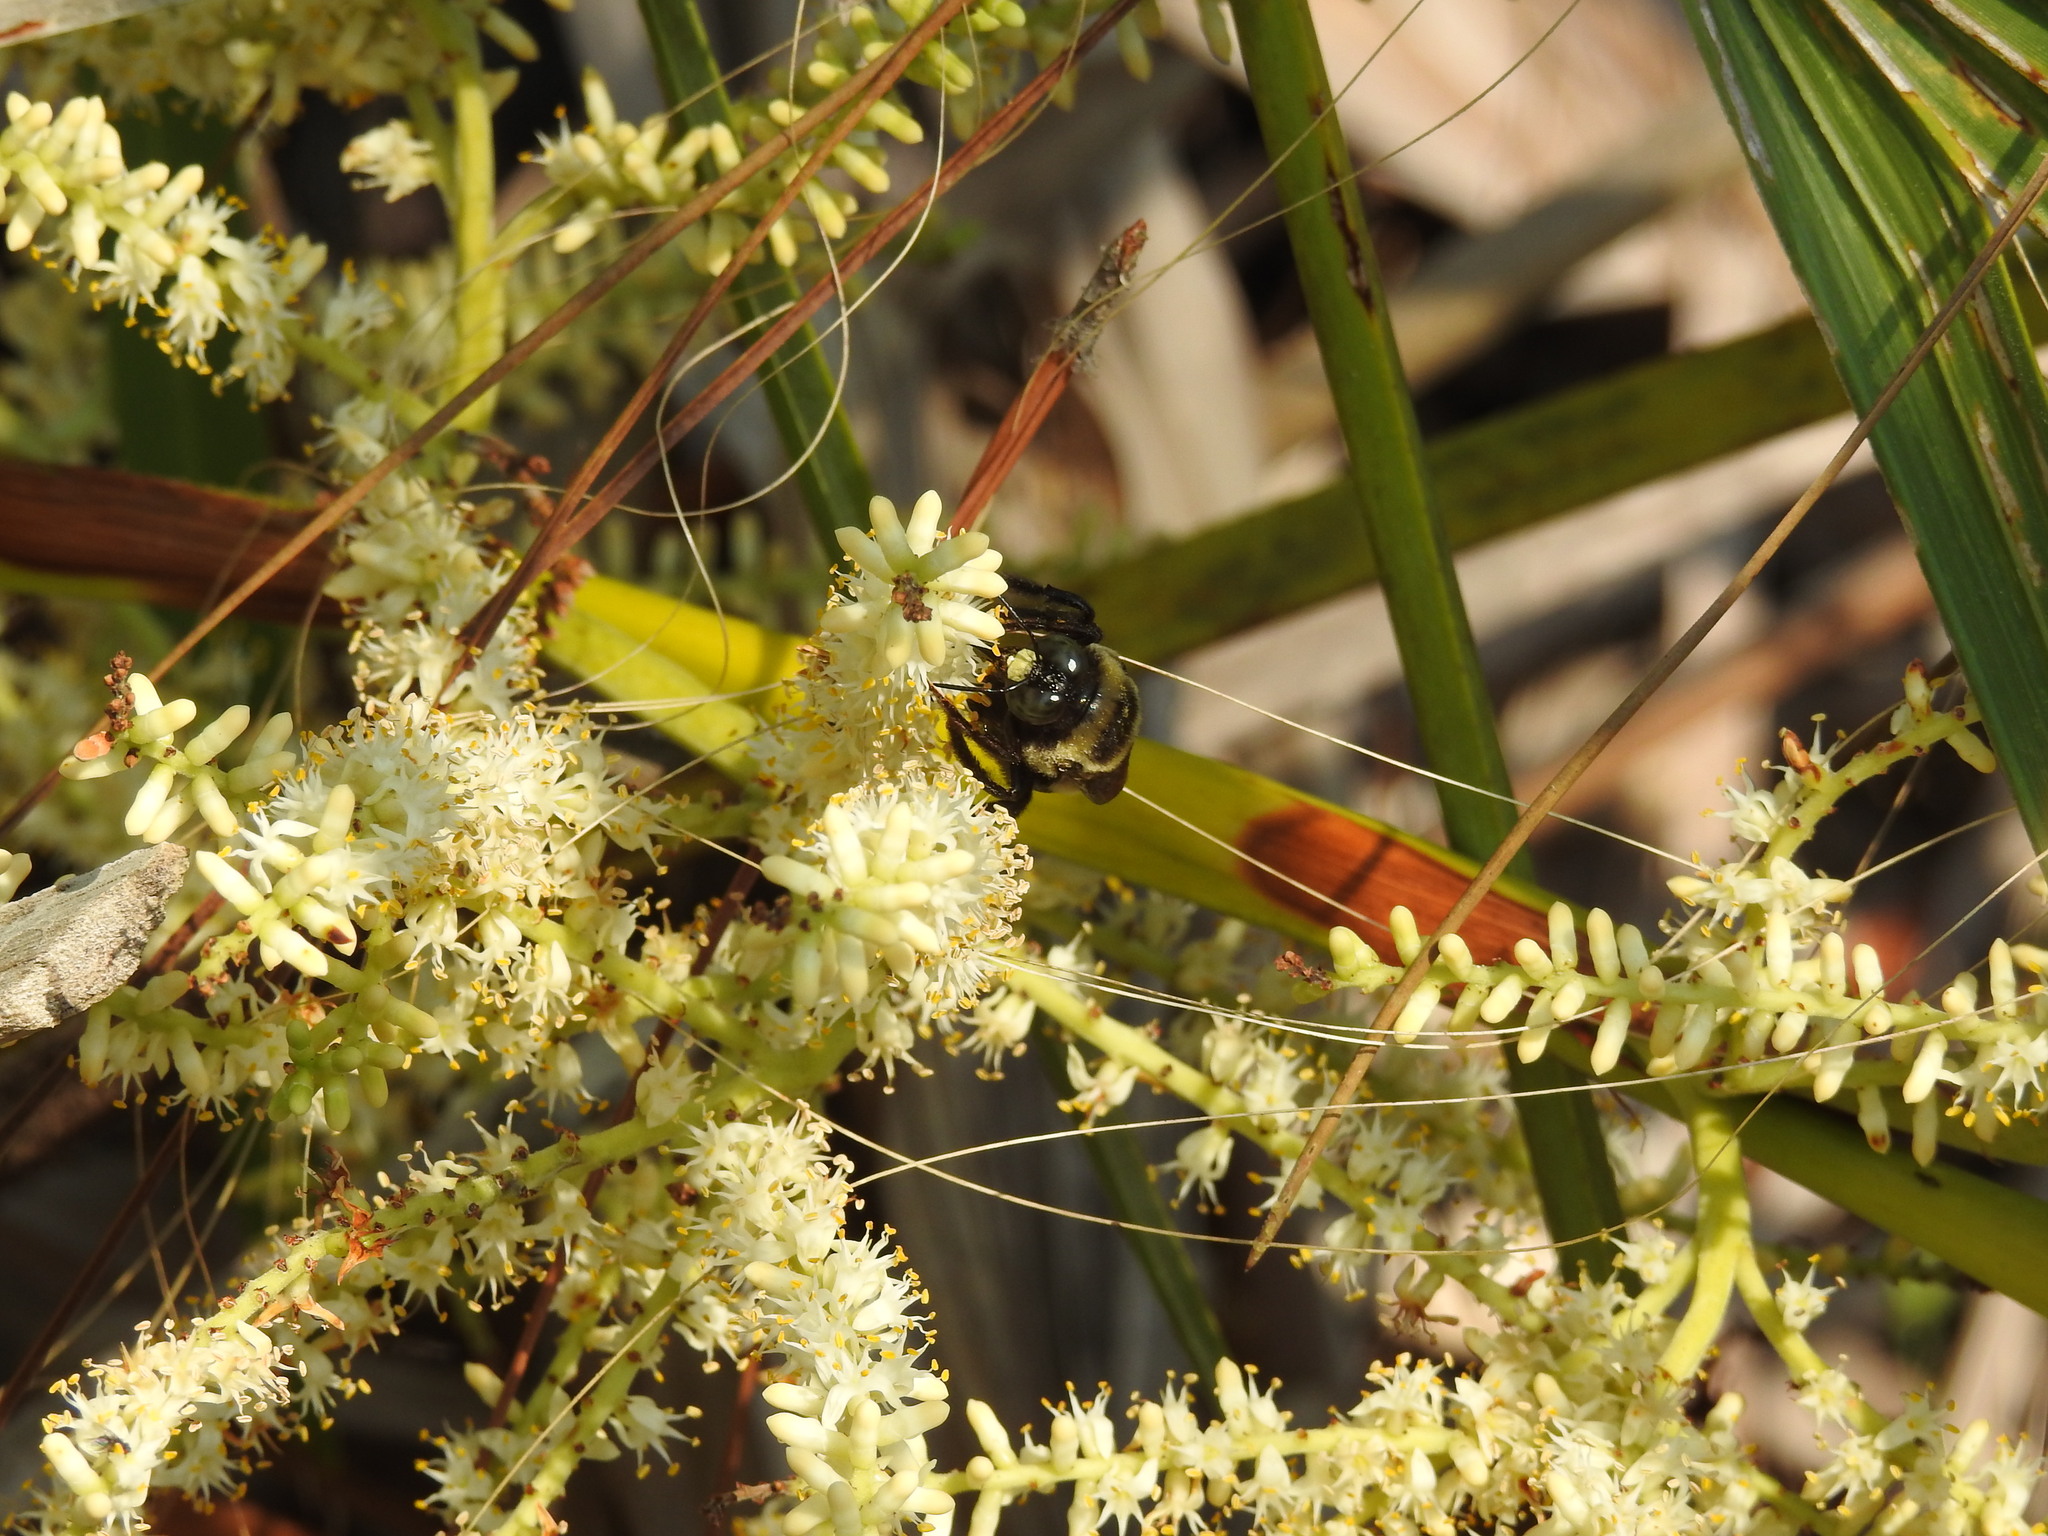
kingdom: Animalia
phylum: Arthropoda
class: Insecta
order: Hymenoptera
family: Apidae
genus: Xylocopa
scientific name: Xylocopa virginica
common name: Carpenter bee
